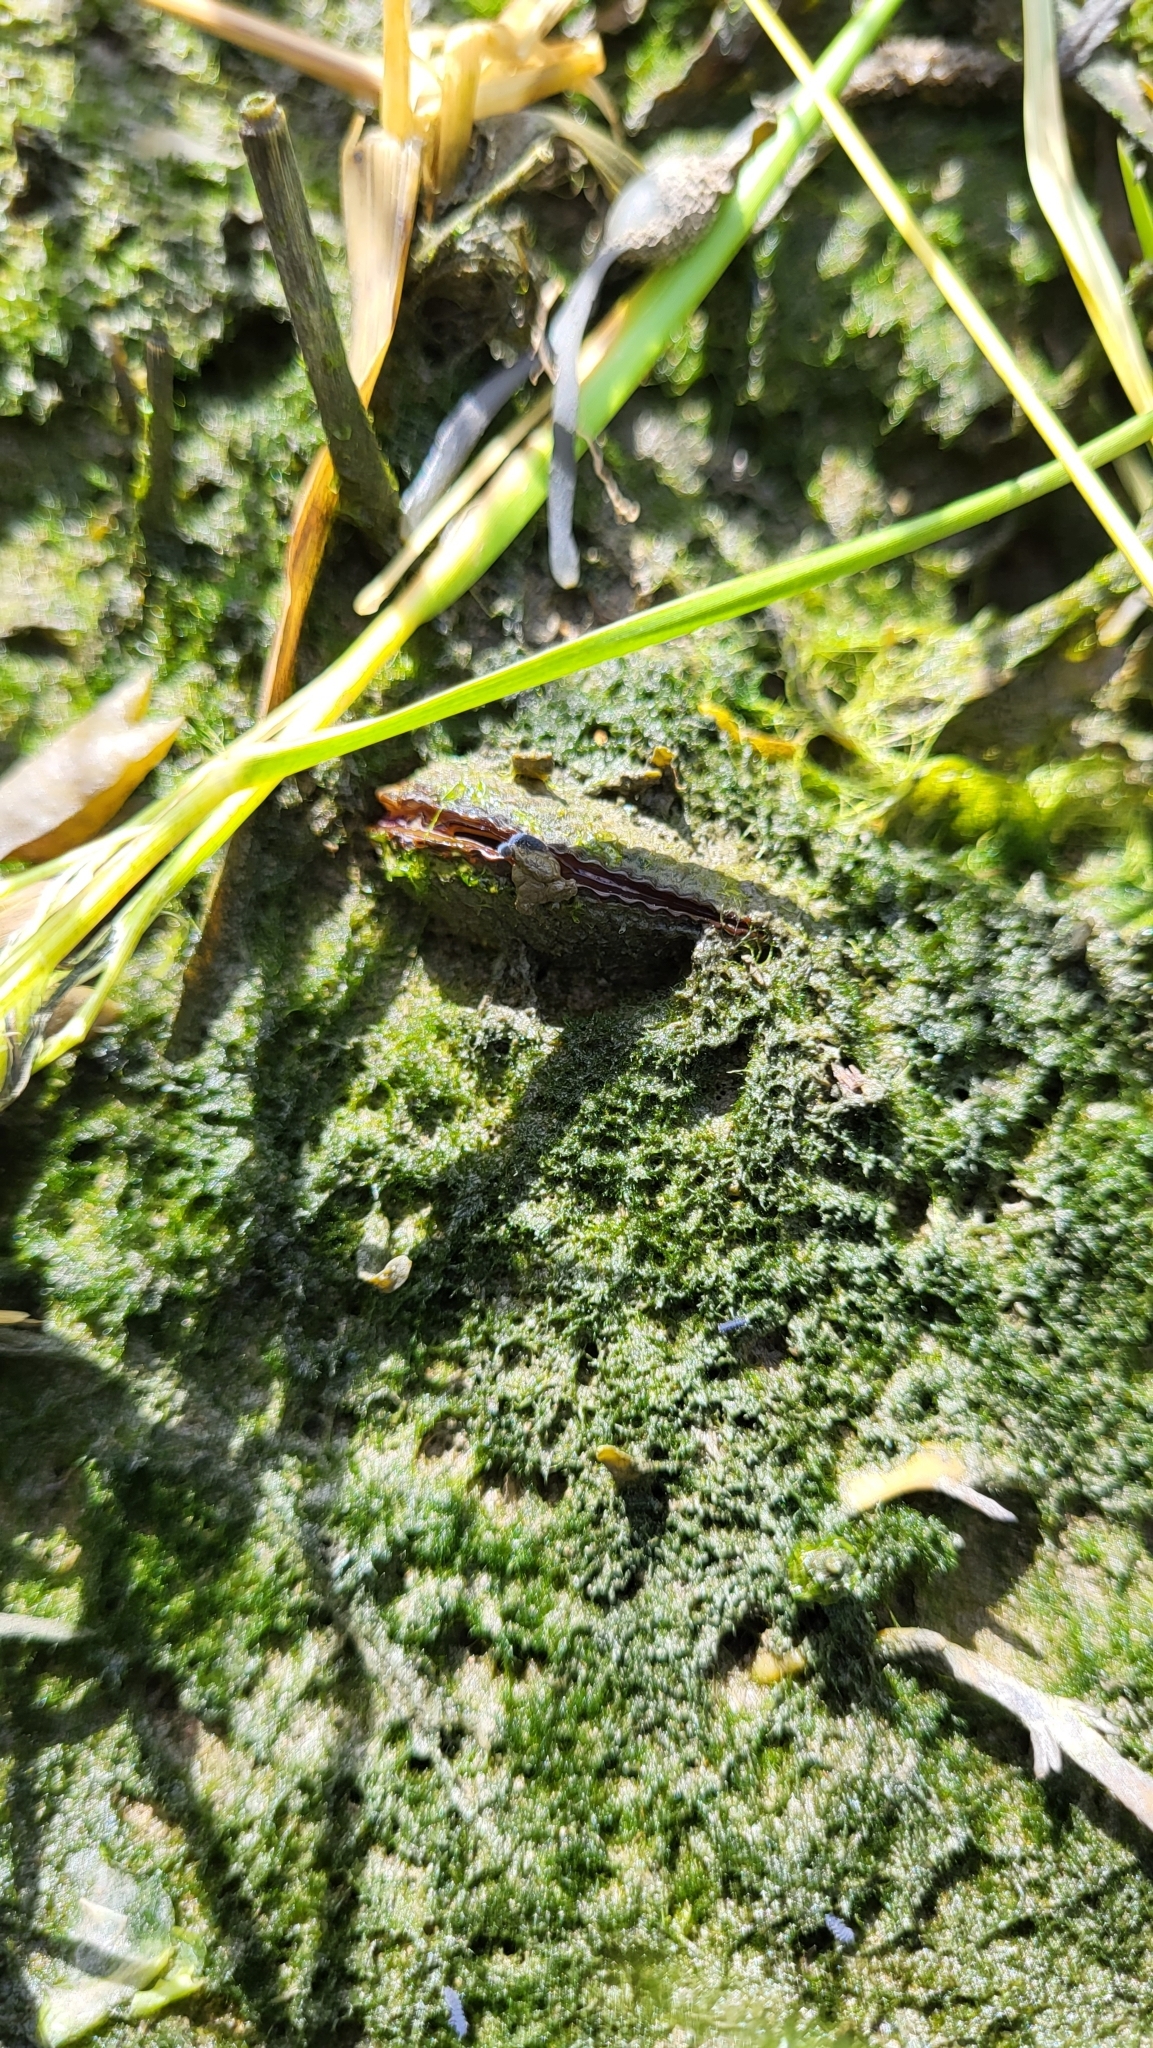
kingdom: Animalia
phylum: Mollusca
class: Bivalvia
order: Mytilida
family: Mytilidae
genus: Geukensia
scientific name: Geukensia demissa
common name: Ribbed mussel
